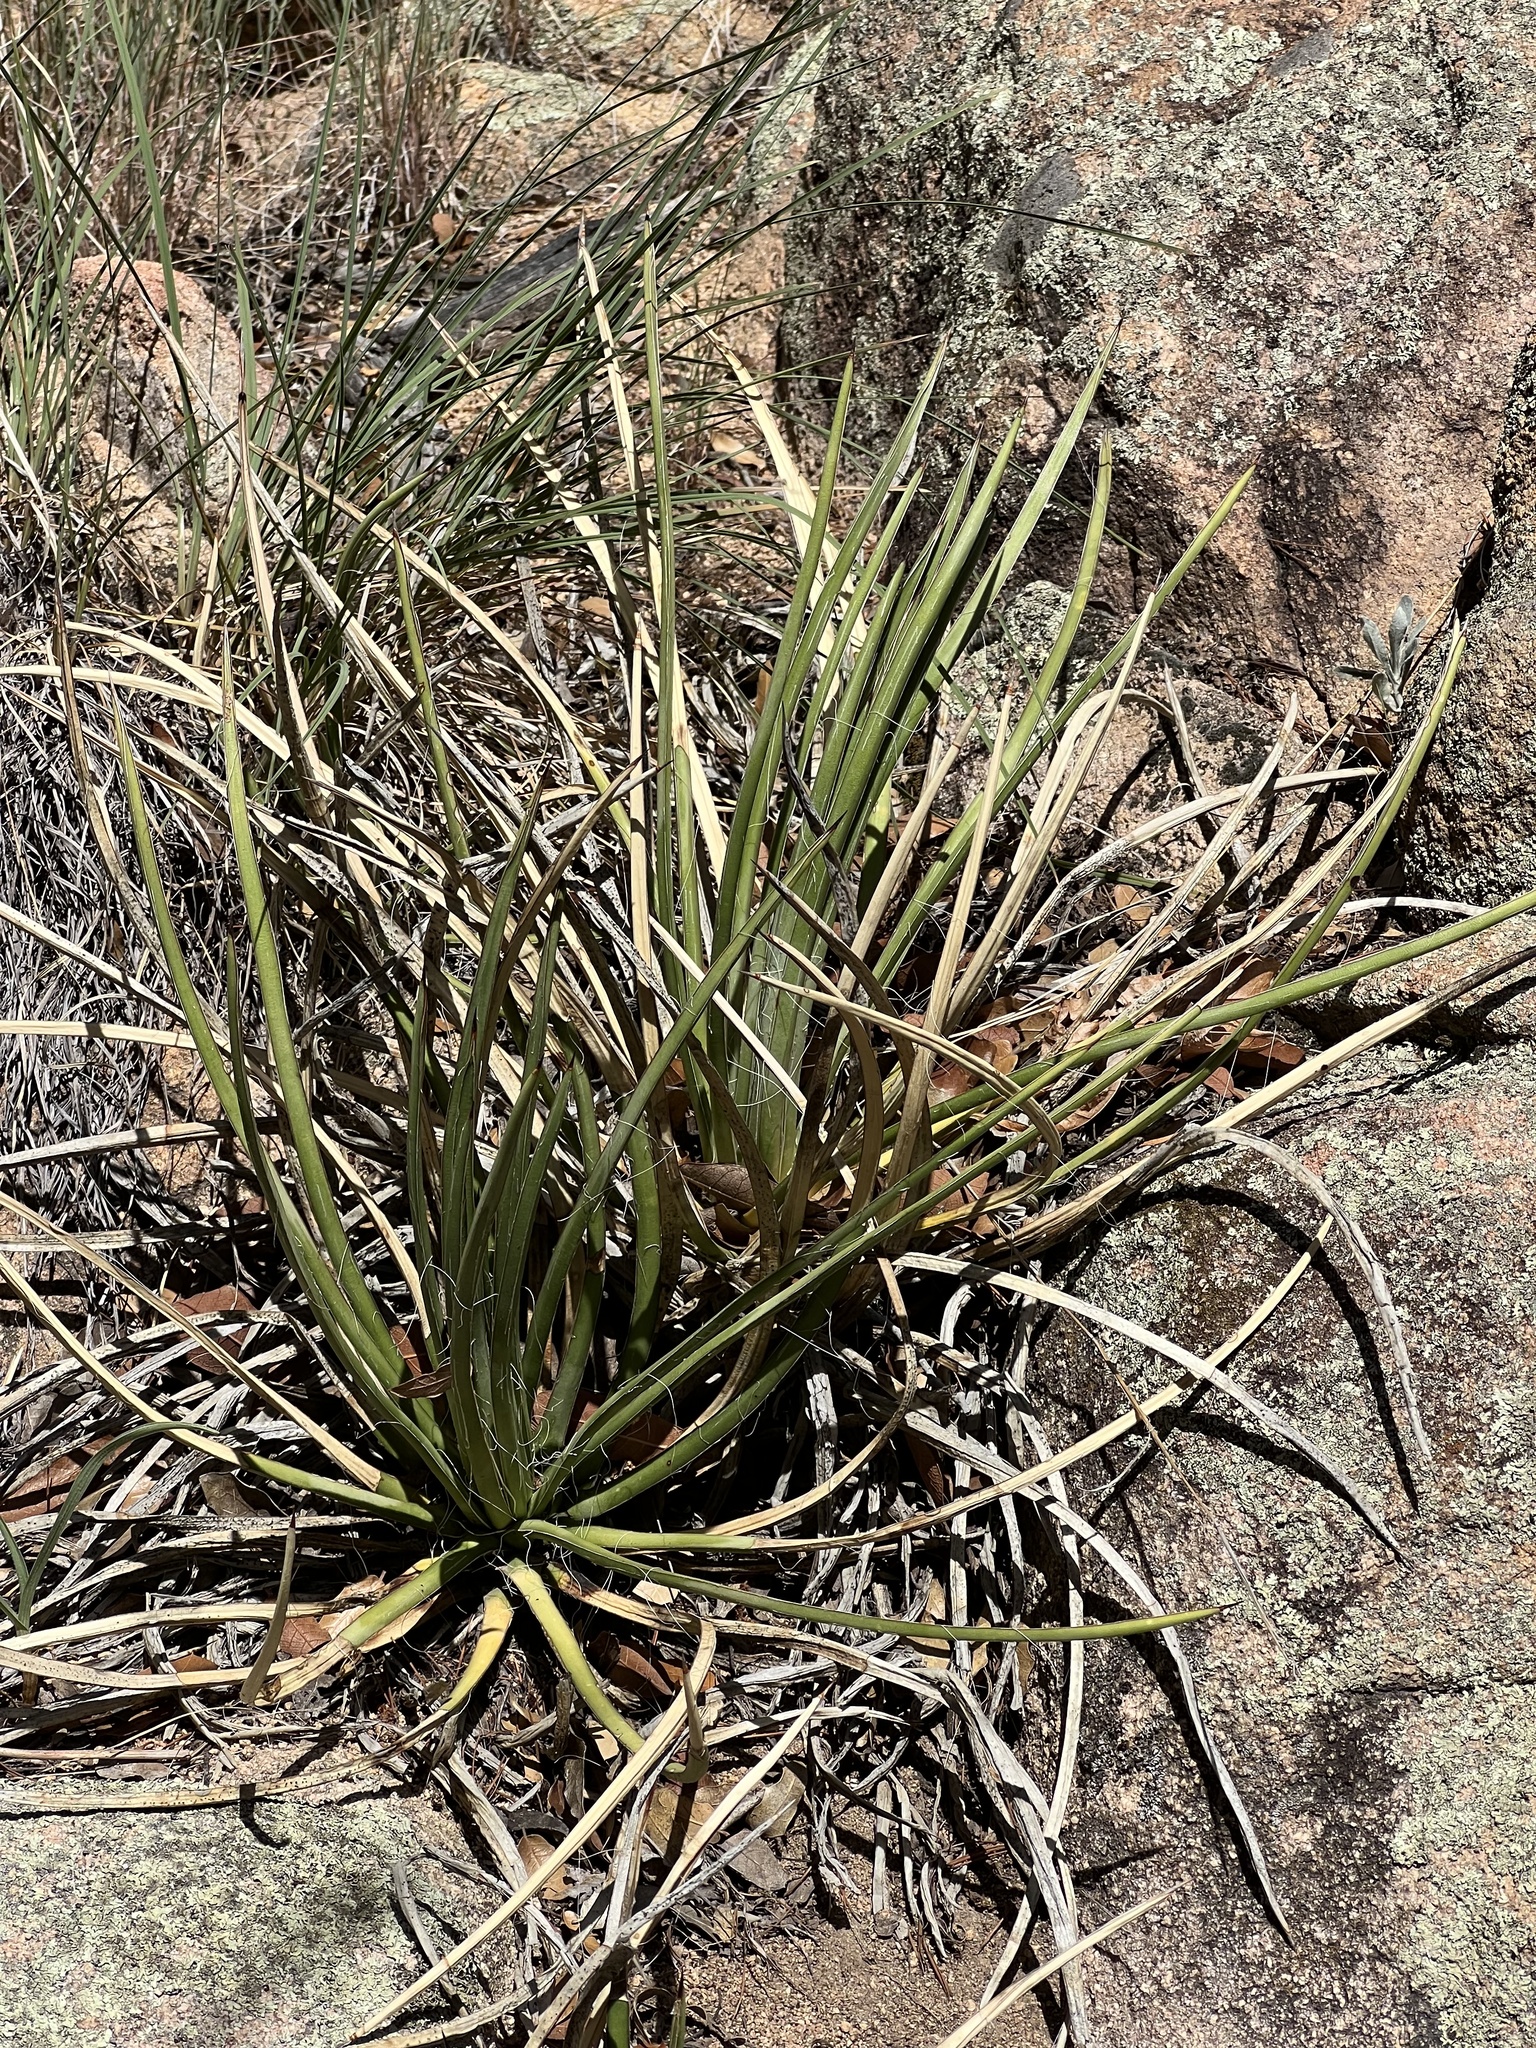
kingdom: Plantae
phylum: Tracheophyta
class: Liliopsida
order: Asparagales
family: Asparagaceae
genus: Agave
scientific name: Agave schottii
